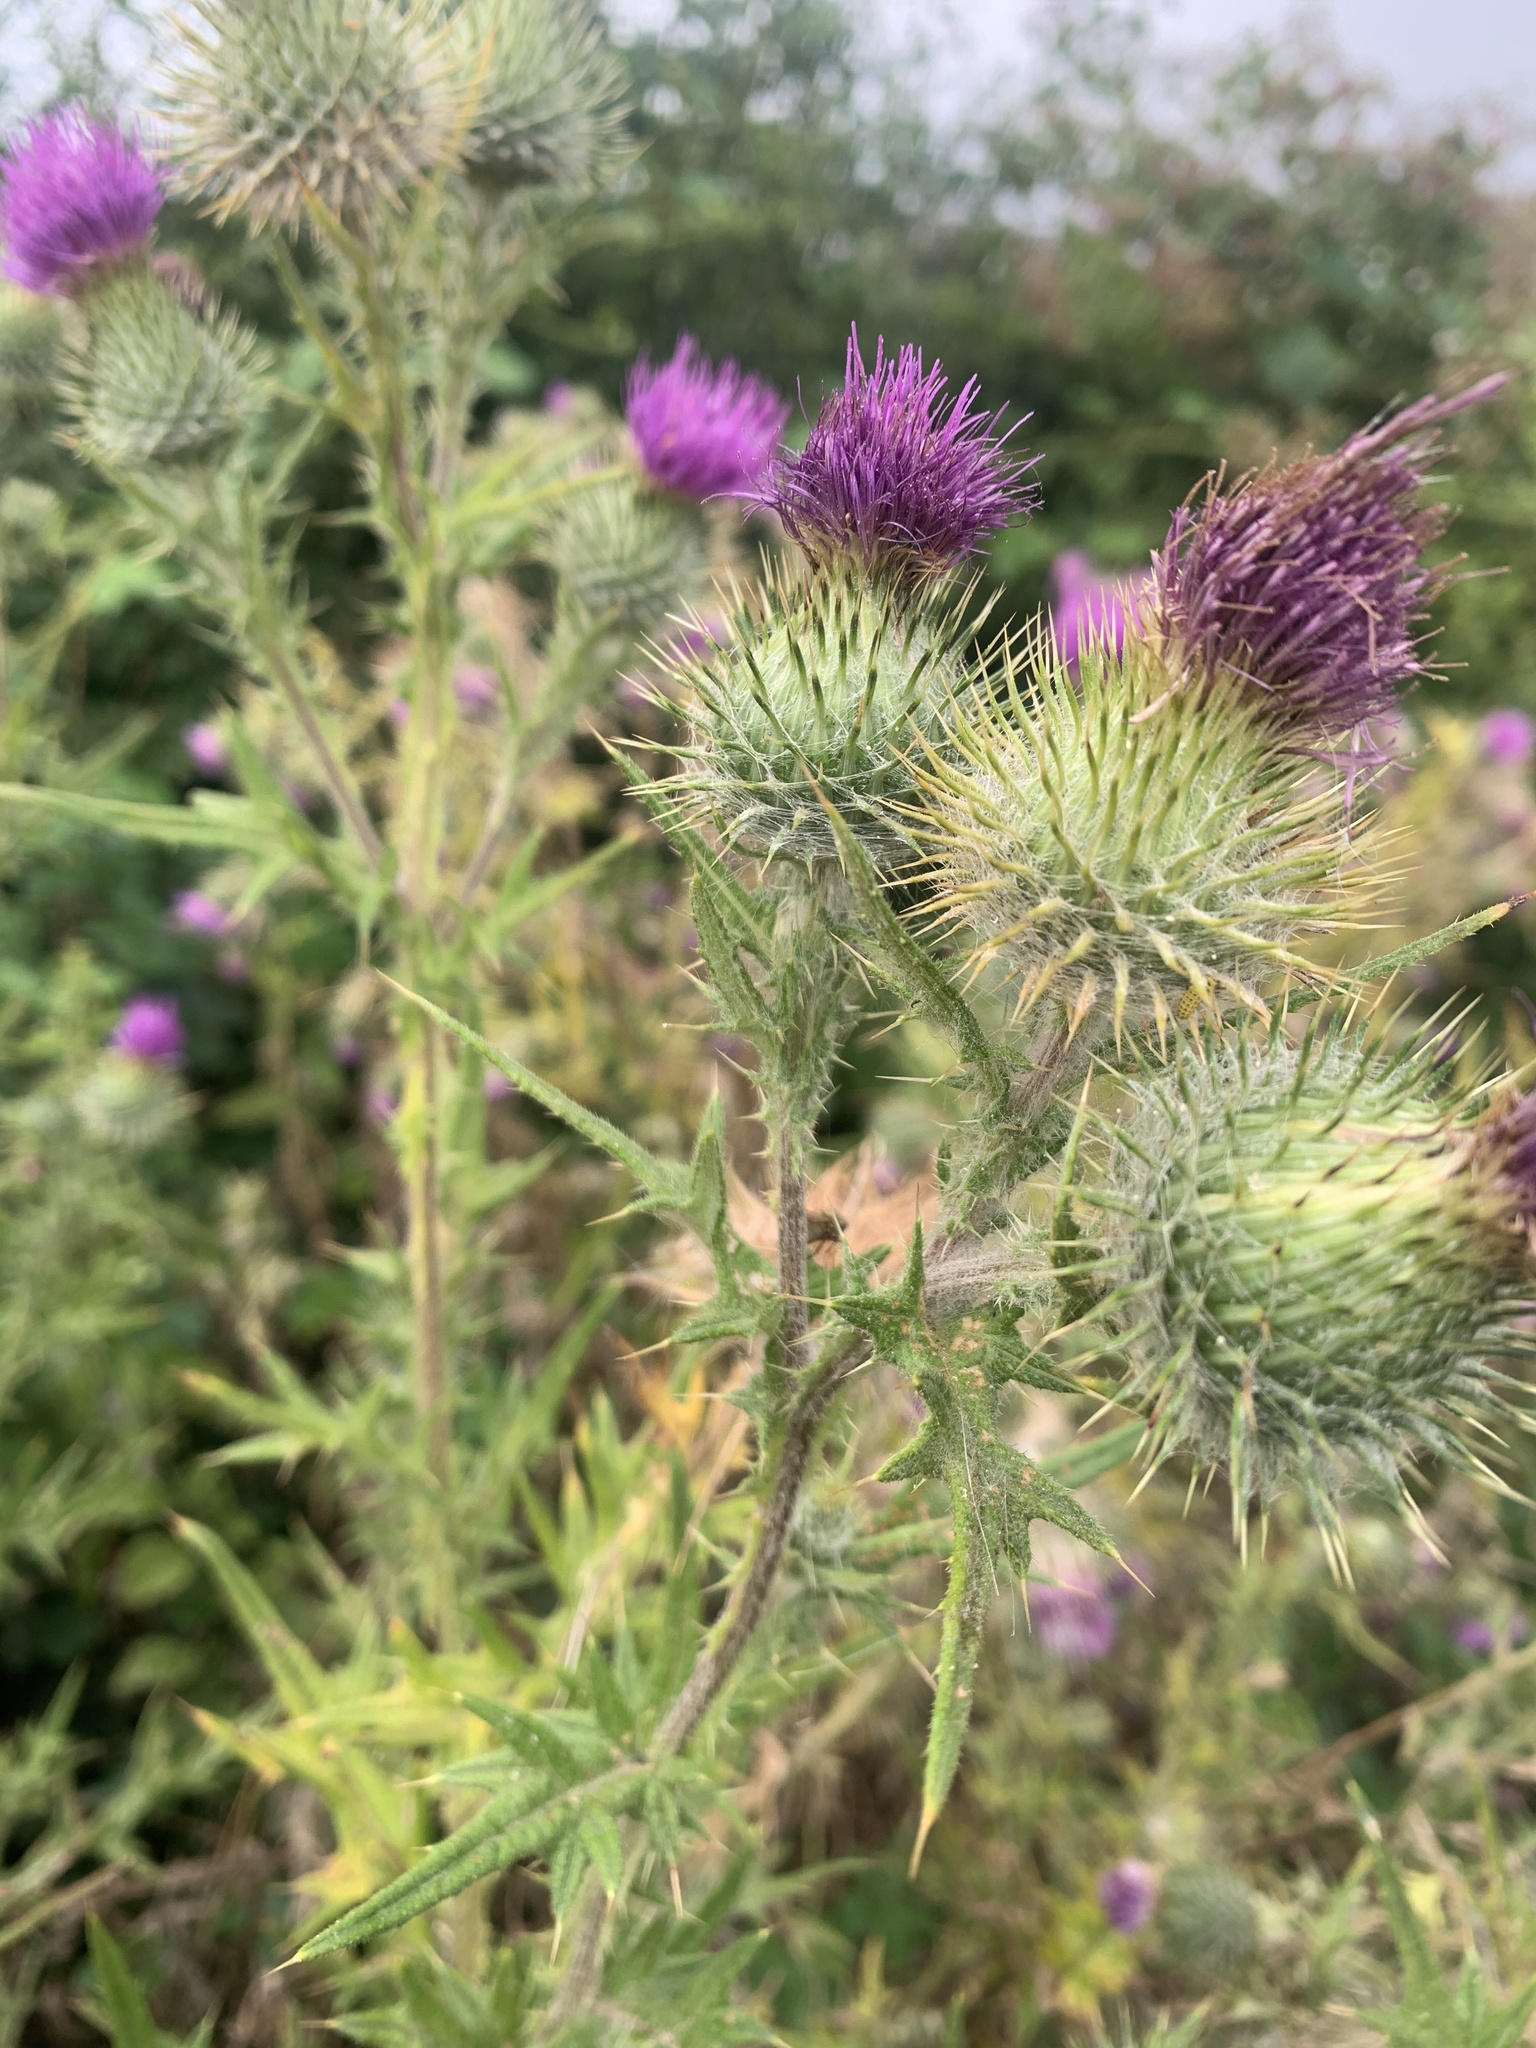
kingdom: Plantae
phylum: Tracheophyta
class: Magnoliopsida
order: Asterales
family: Asteraceae
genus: Cirsium
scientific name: Cirsium vulgare
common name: Bull thistle
